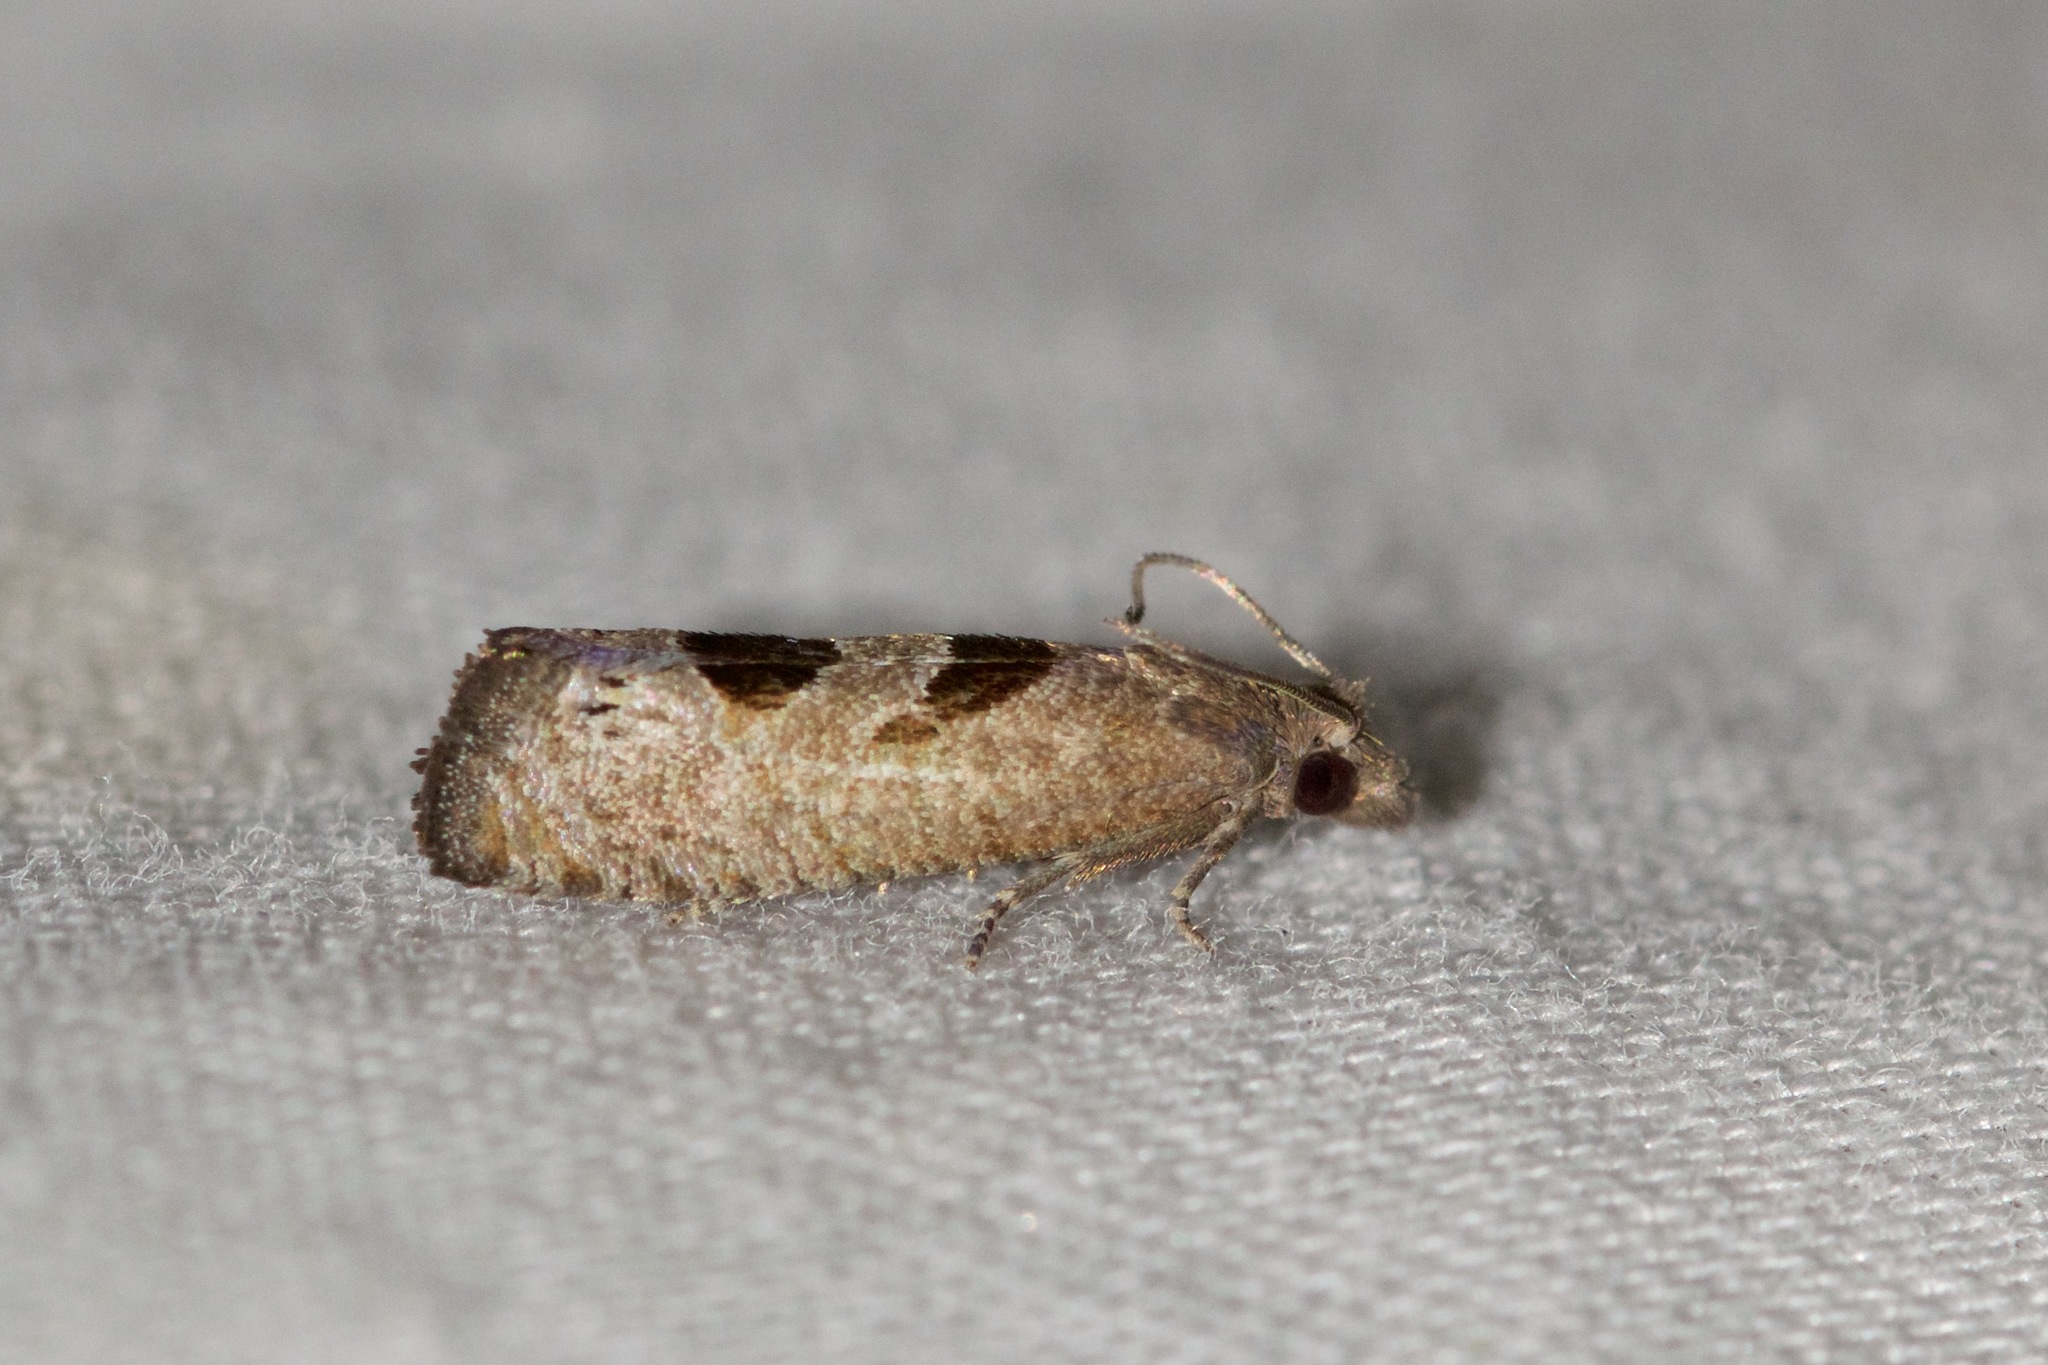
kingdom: Animalia
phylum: Arthropoda
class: Insecta
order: Lepidoptera
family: Tortricidae
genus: Eucosma
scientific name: Eucosma tomonana
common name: Aster-head eucosma moth
